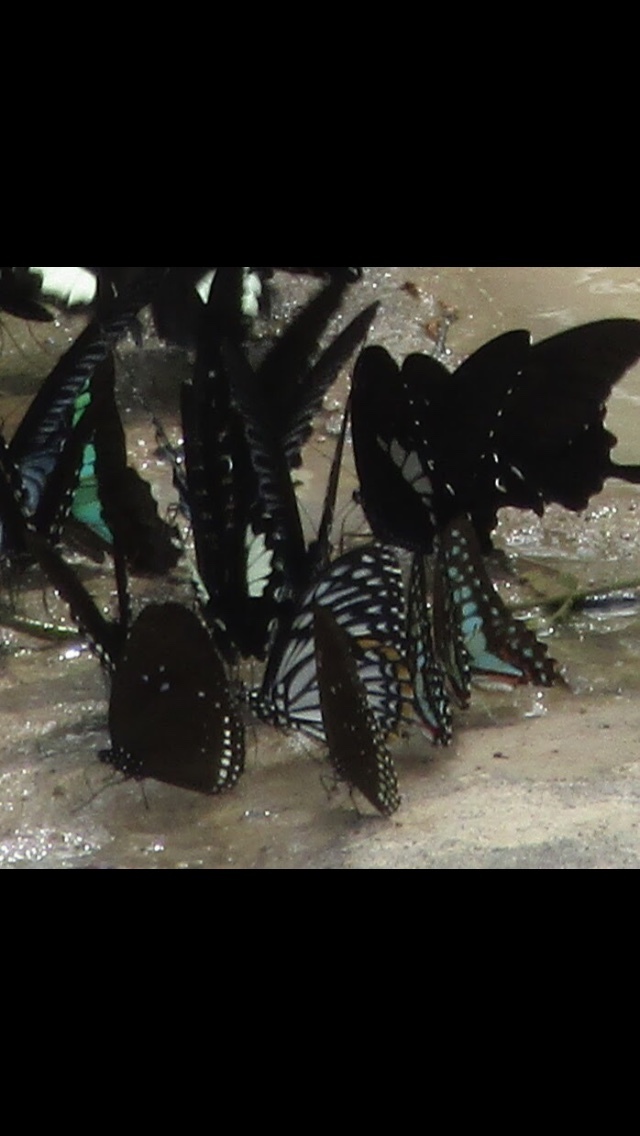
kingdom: Animalia
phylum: Arthropoda
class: Insecta
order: Lepidoptera
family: Papilionidae
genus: Chilasa
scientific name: Chilasa clytia
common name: Common mime
